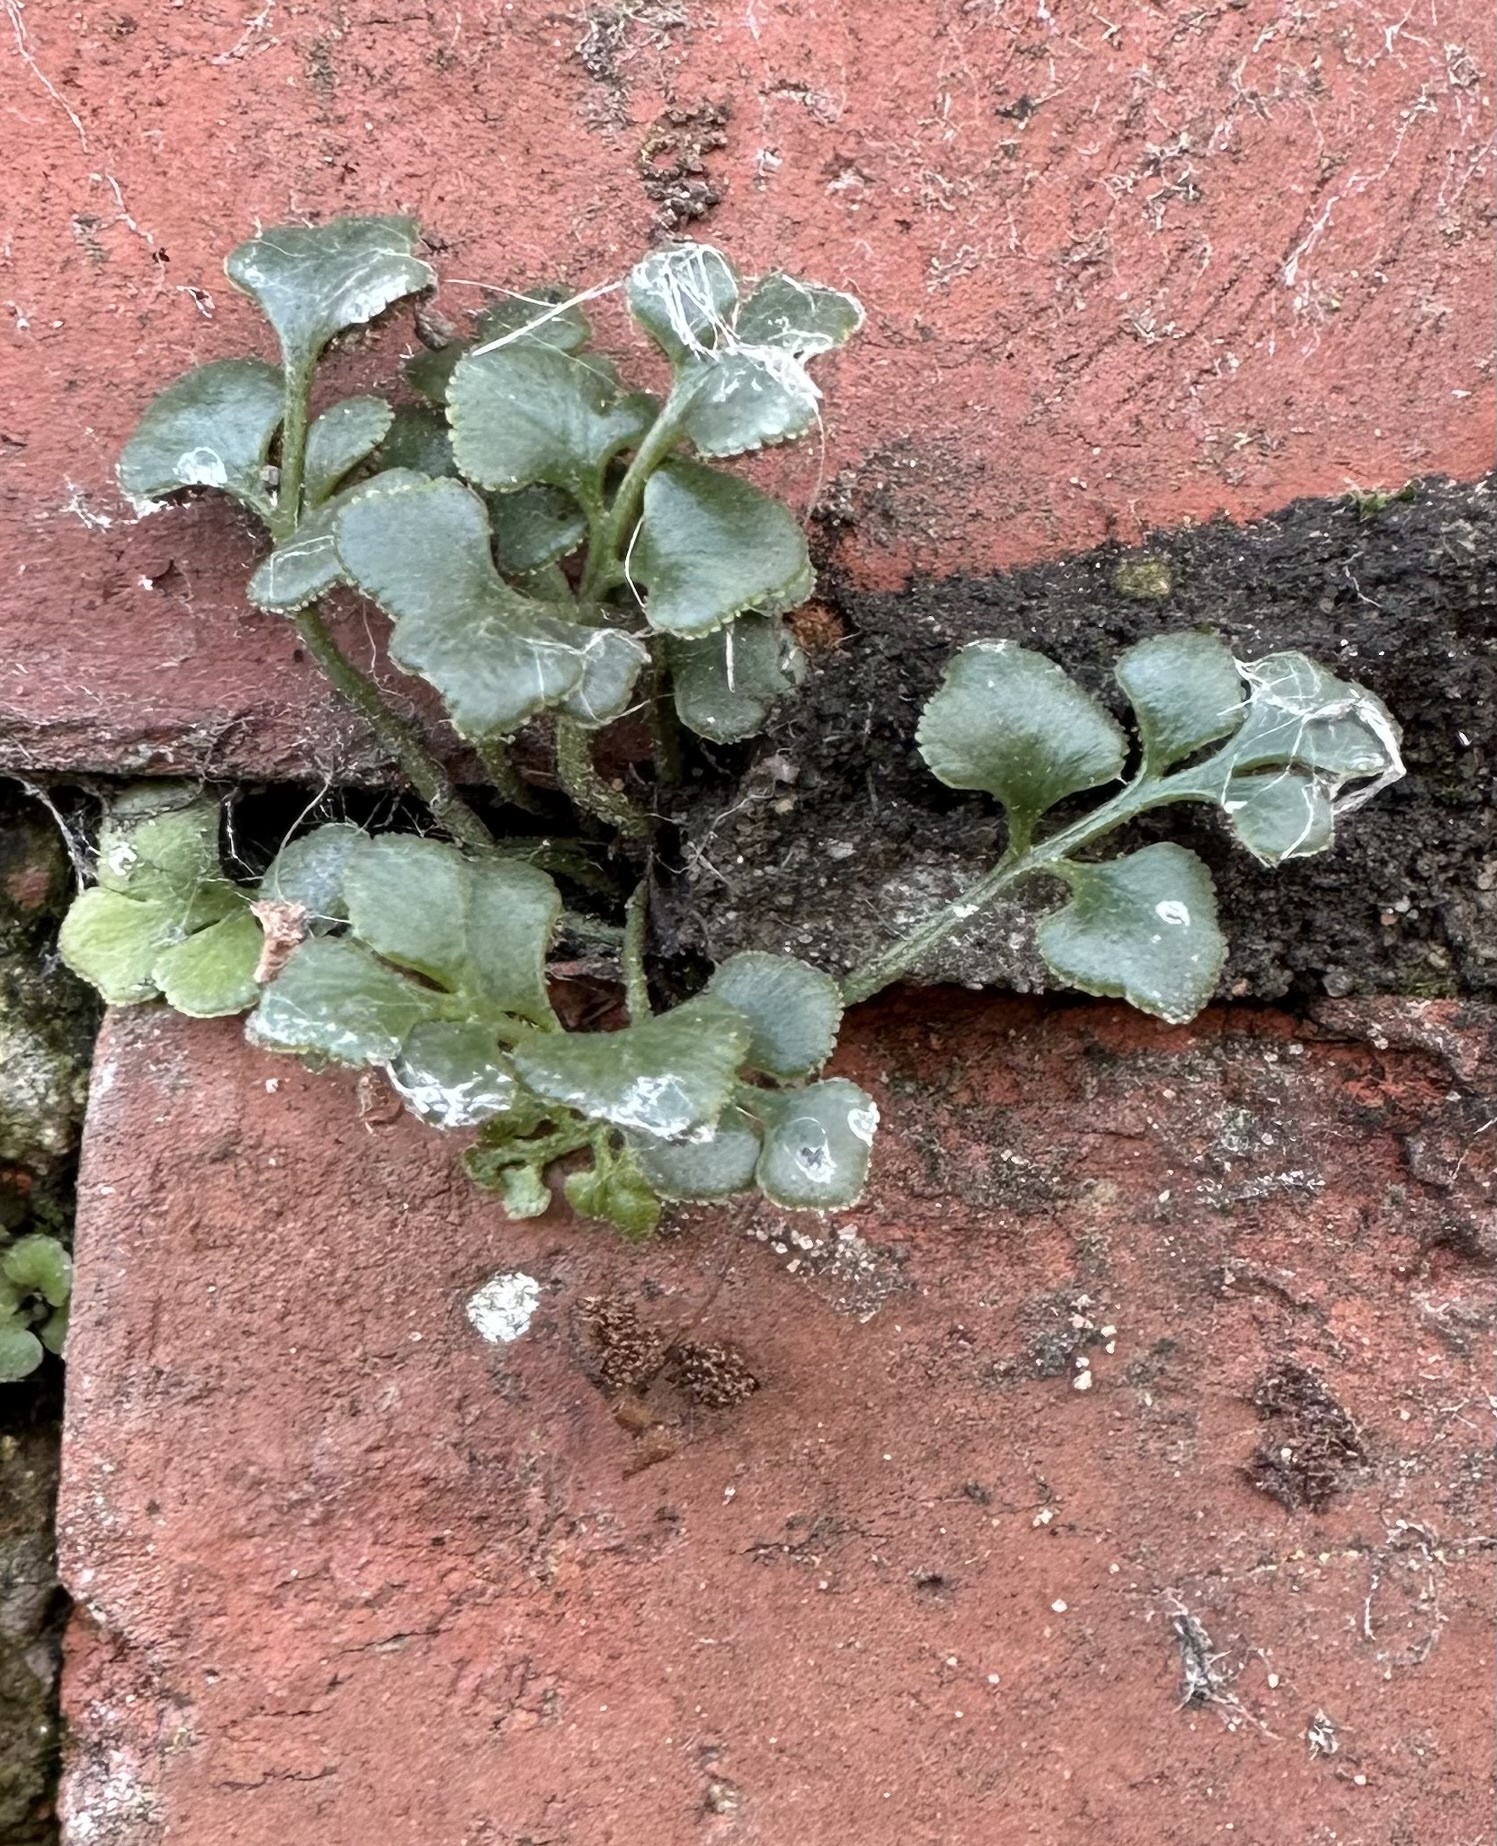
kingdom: Plantae
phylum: Tracheophyta
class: Polypodiopsida
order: Polypodiales
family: Aspleniaceae
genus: Asplenium
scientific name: Asplenium ruta-muraria
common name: Wall-rue
